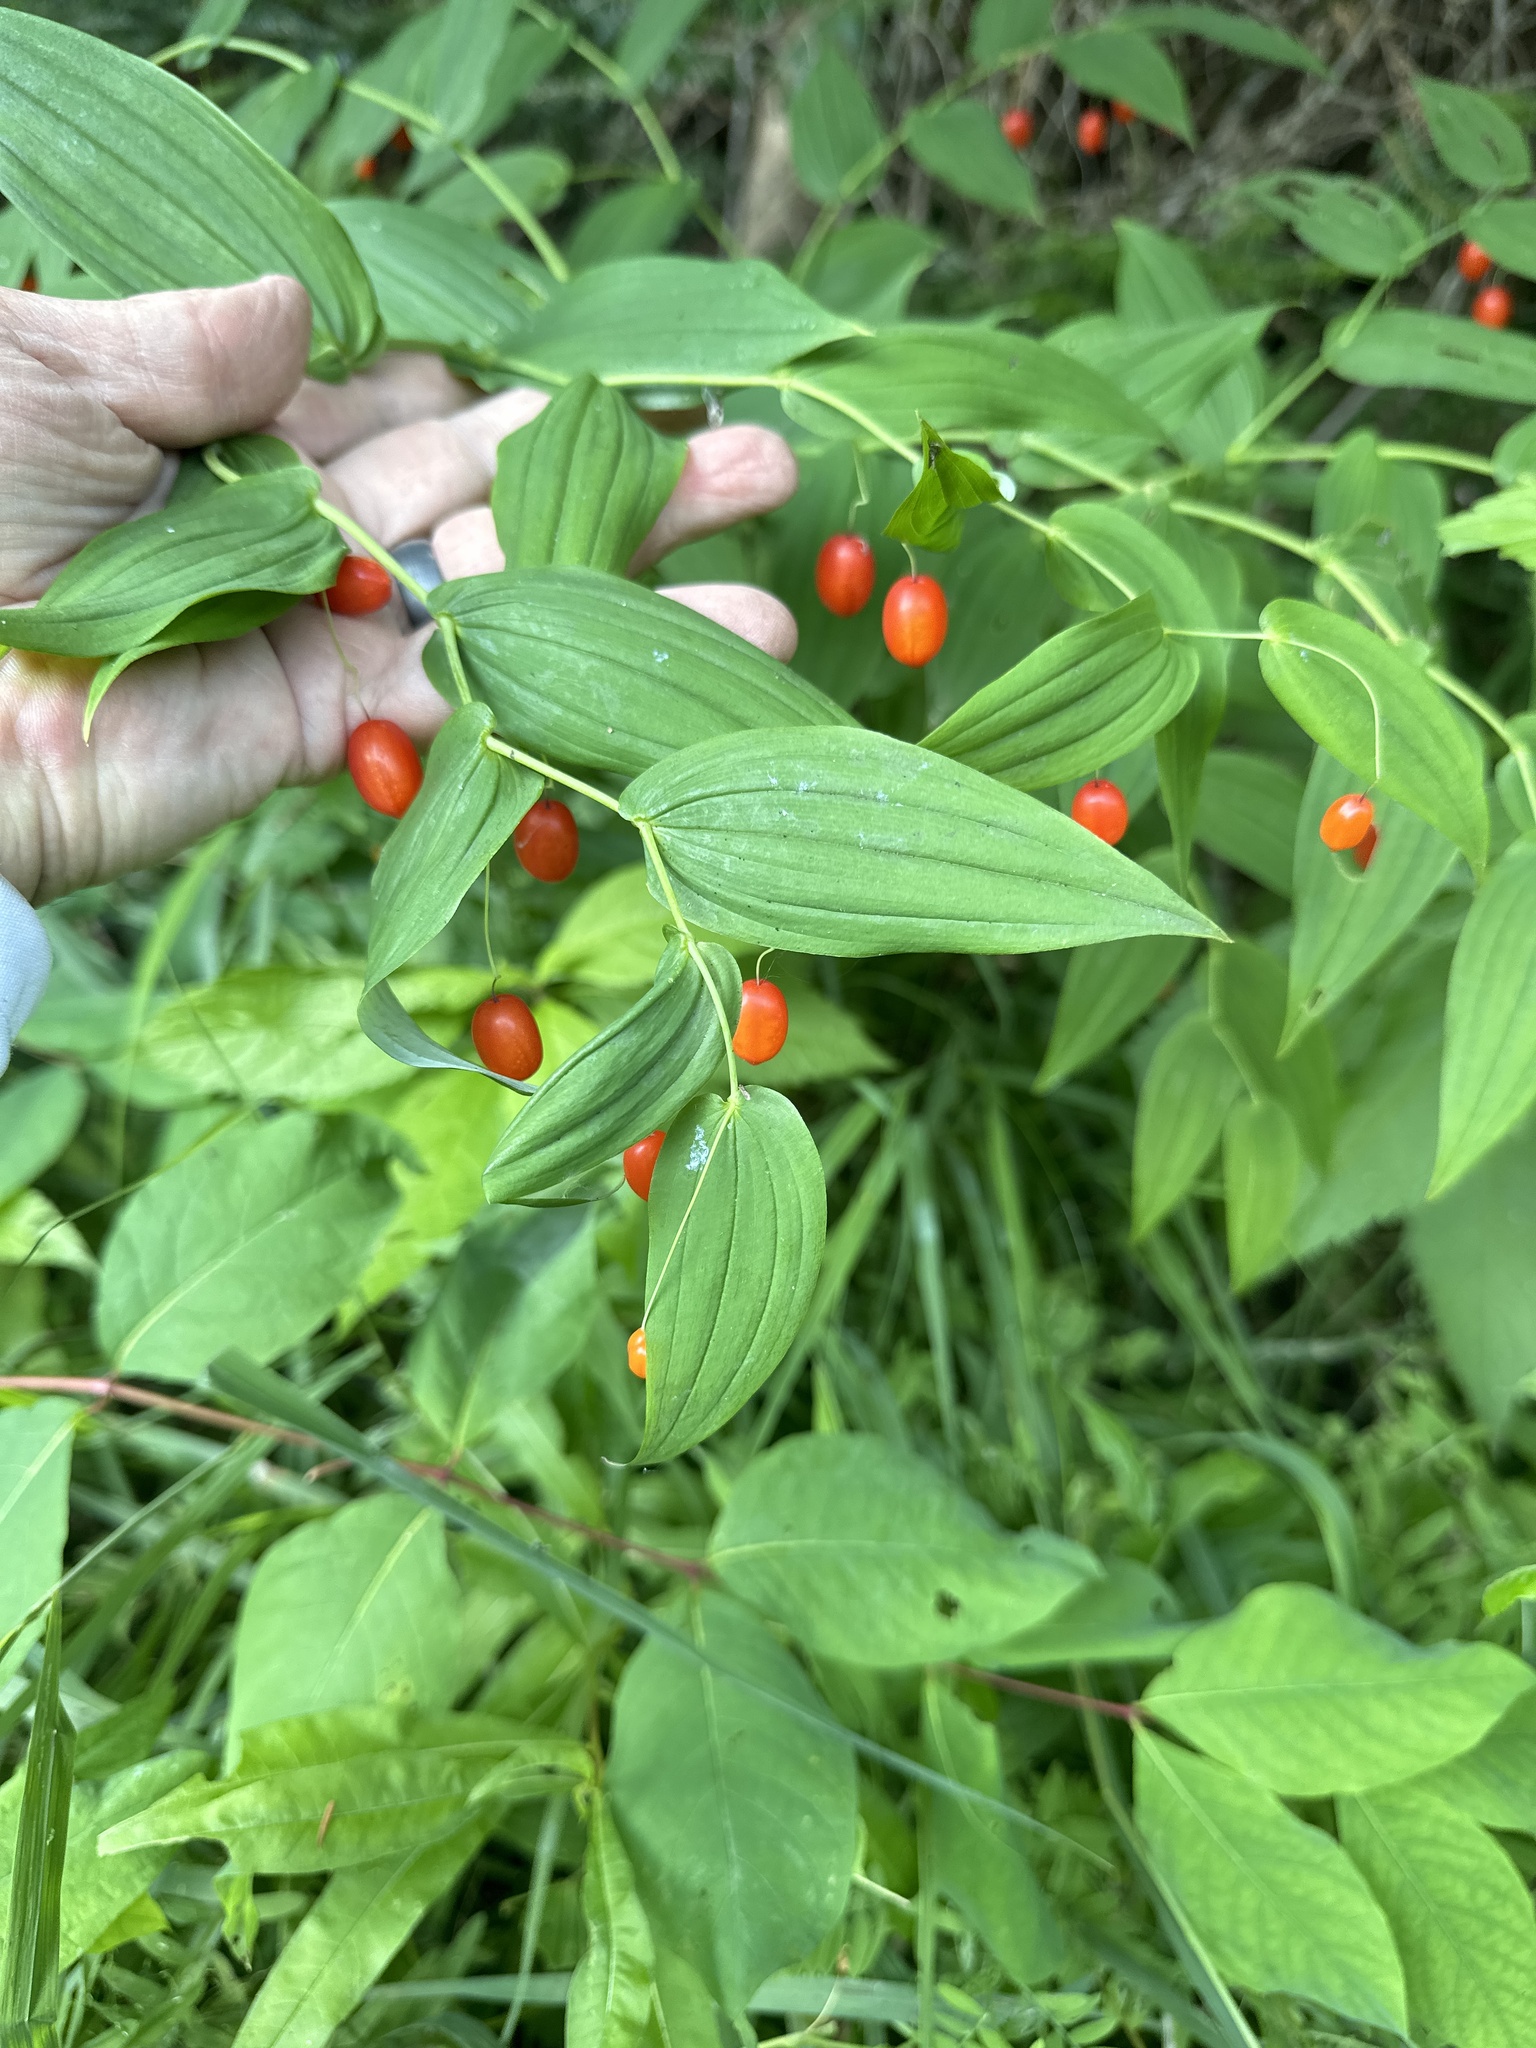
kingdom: Plantae
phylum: Tracheophyta
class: Liliopsida
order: Liliales
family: Liliaceae
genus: Streptopus
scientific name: Streptopus amplexifolius
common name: Clasp twisted stalk
